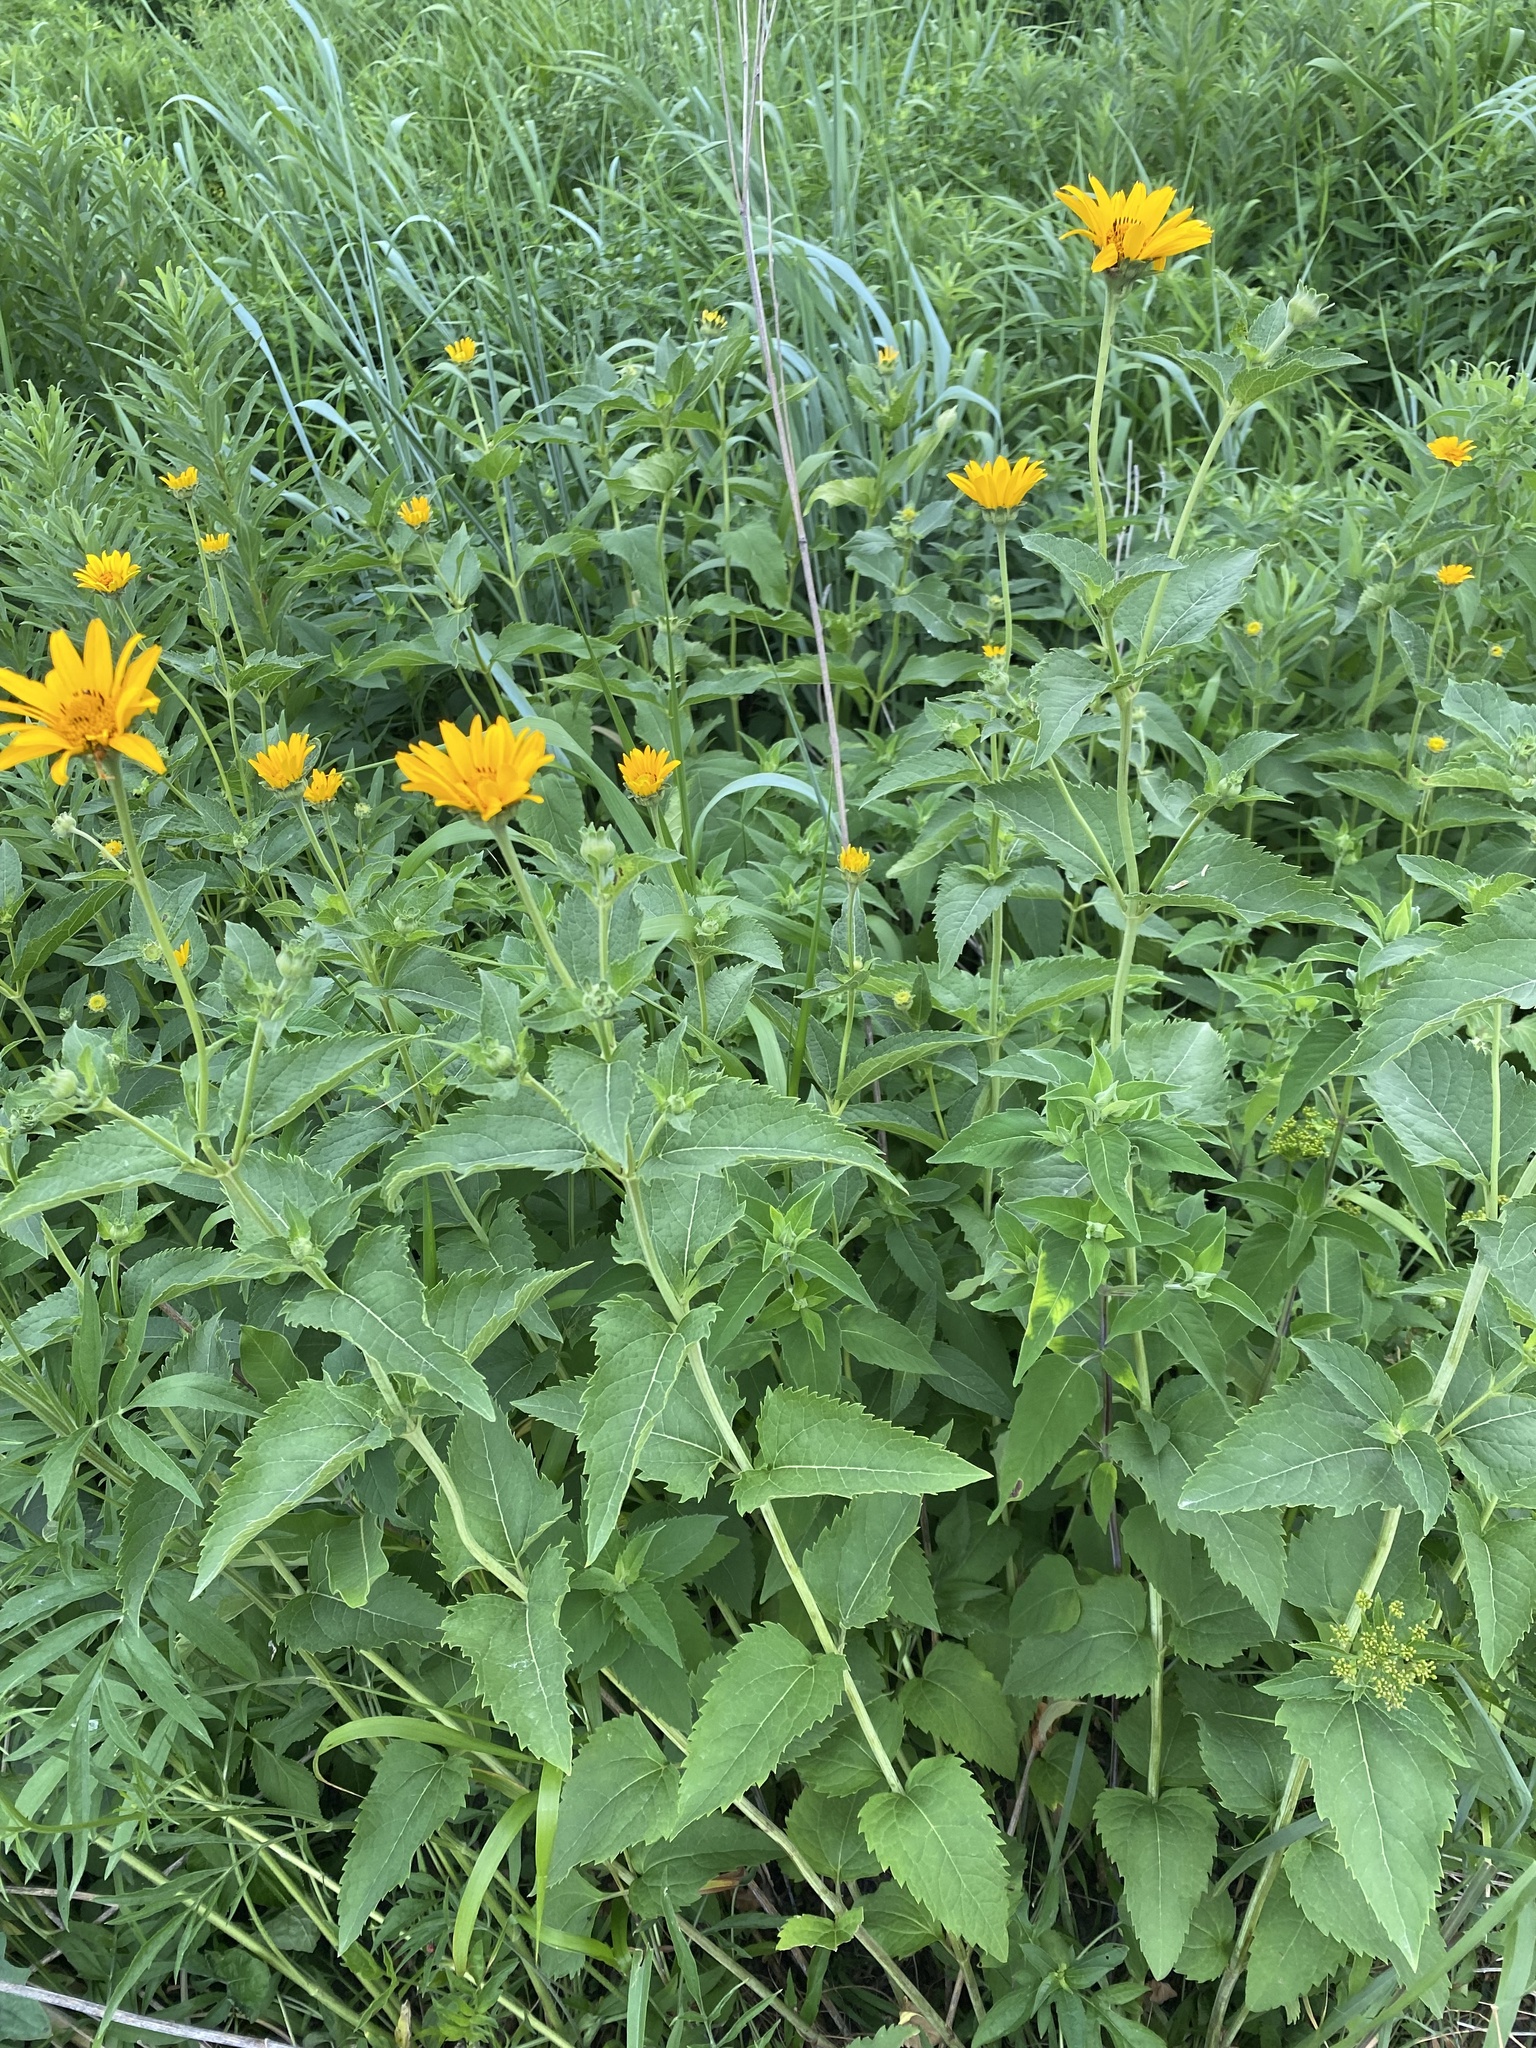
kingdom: Plantae
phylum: Tracheophyta
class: Magnoliopsida
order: Asterales
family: Asteraceae
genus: Heliopsis
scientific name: Heliopsis helianthoides
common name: False sunflower
